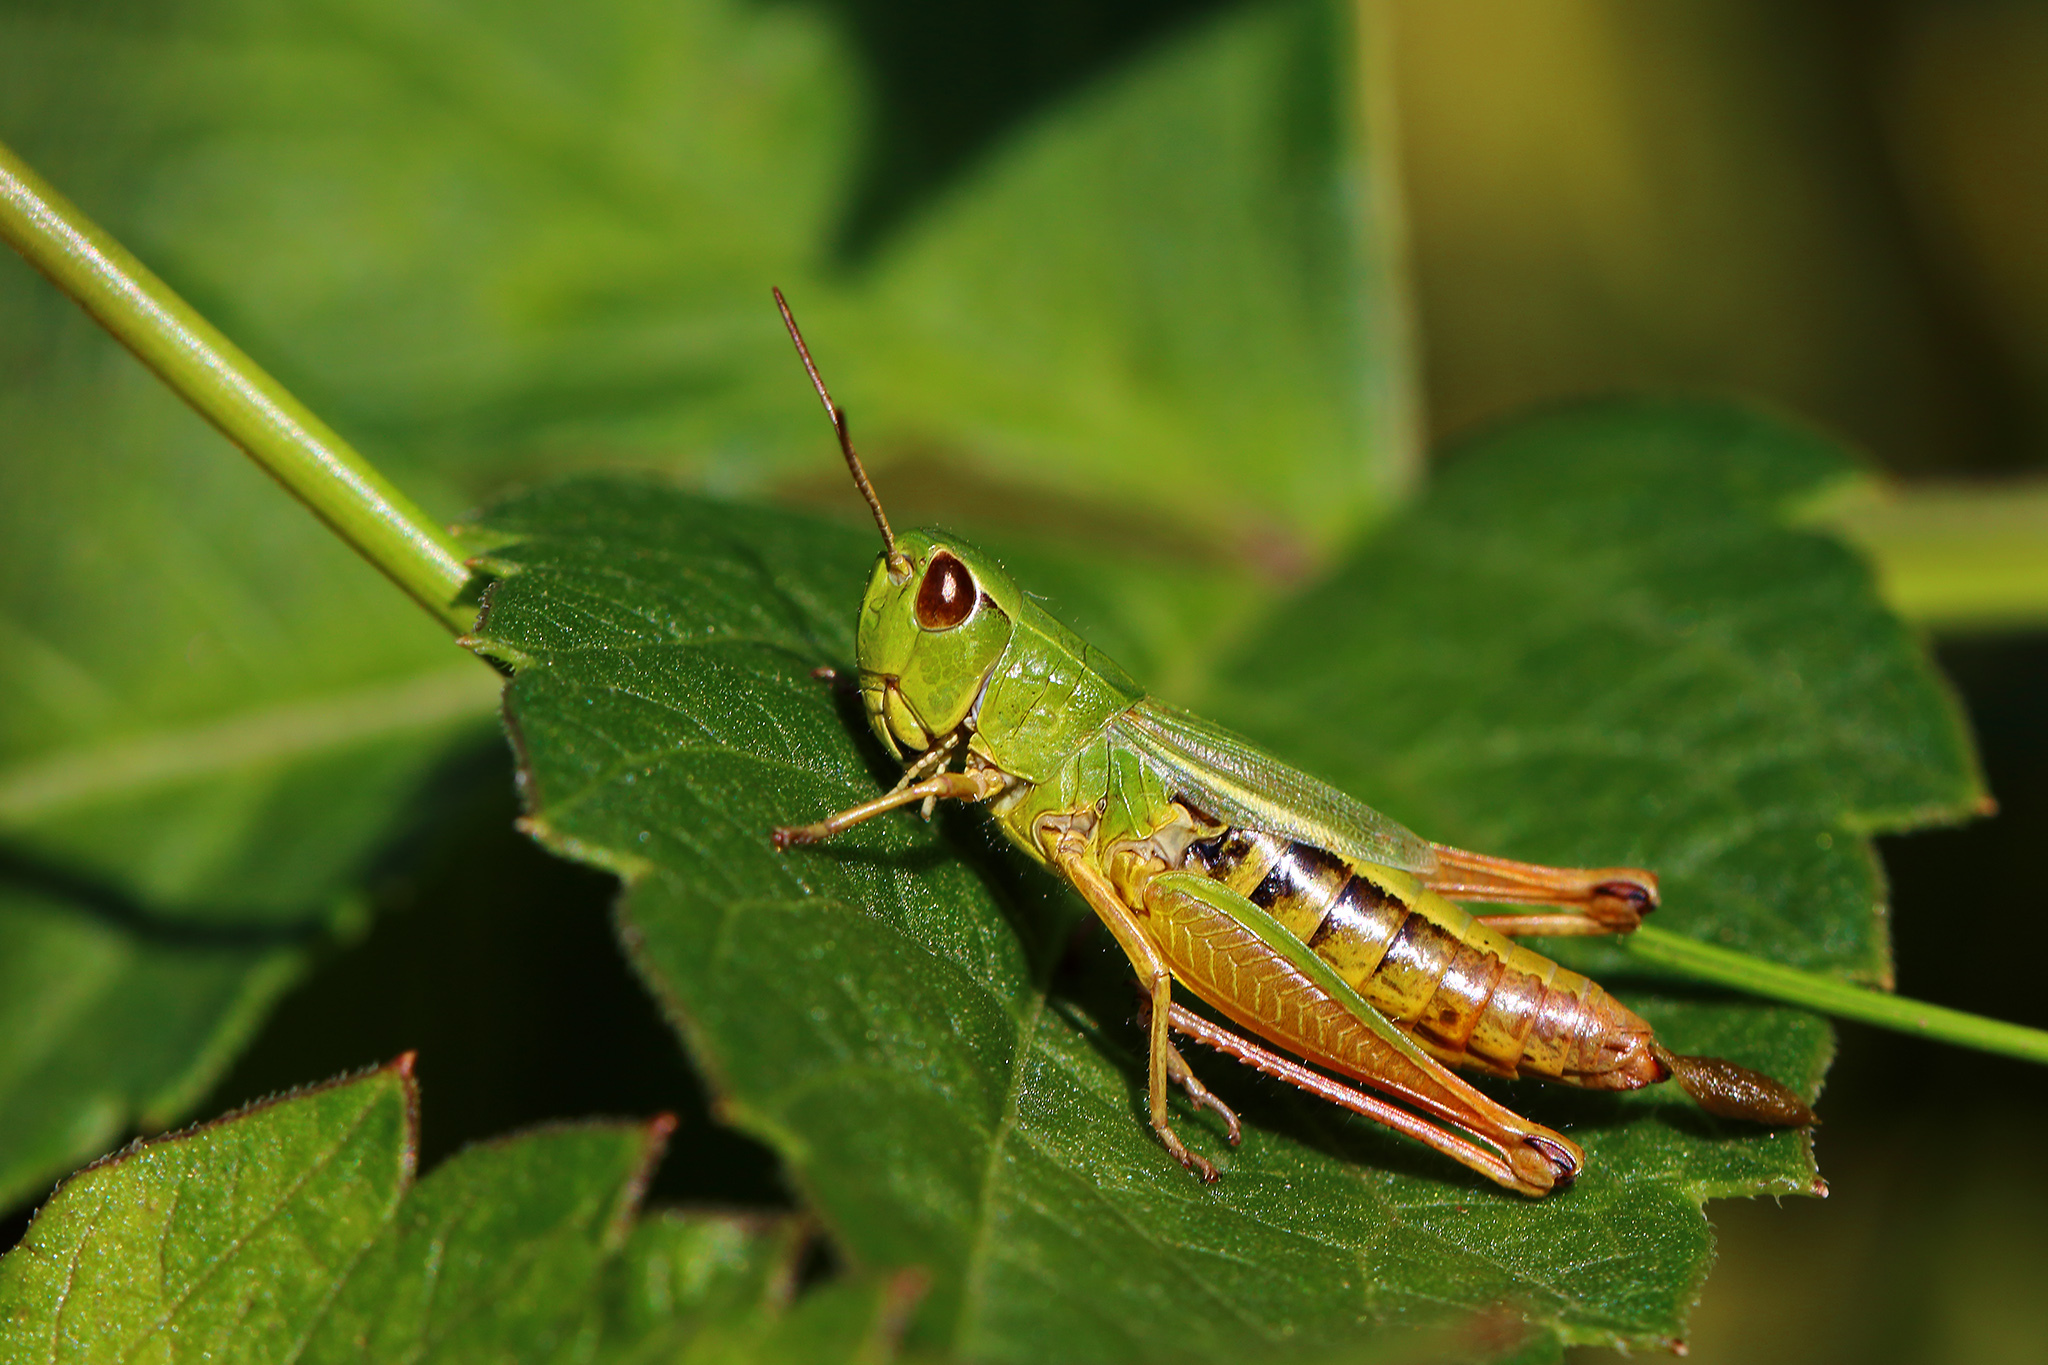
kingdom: Animalia
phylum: Arthropoda
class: Insecta
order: Orthoptera
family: Acrididae
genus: Pseudochorthippus
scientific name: Pseudochorthippus parallelus
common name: Meadow grasshopper
